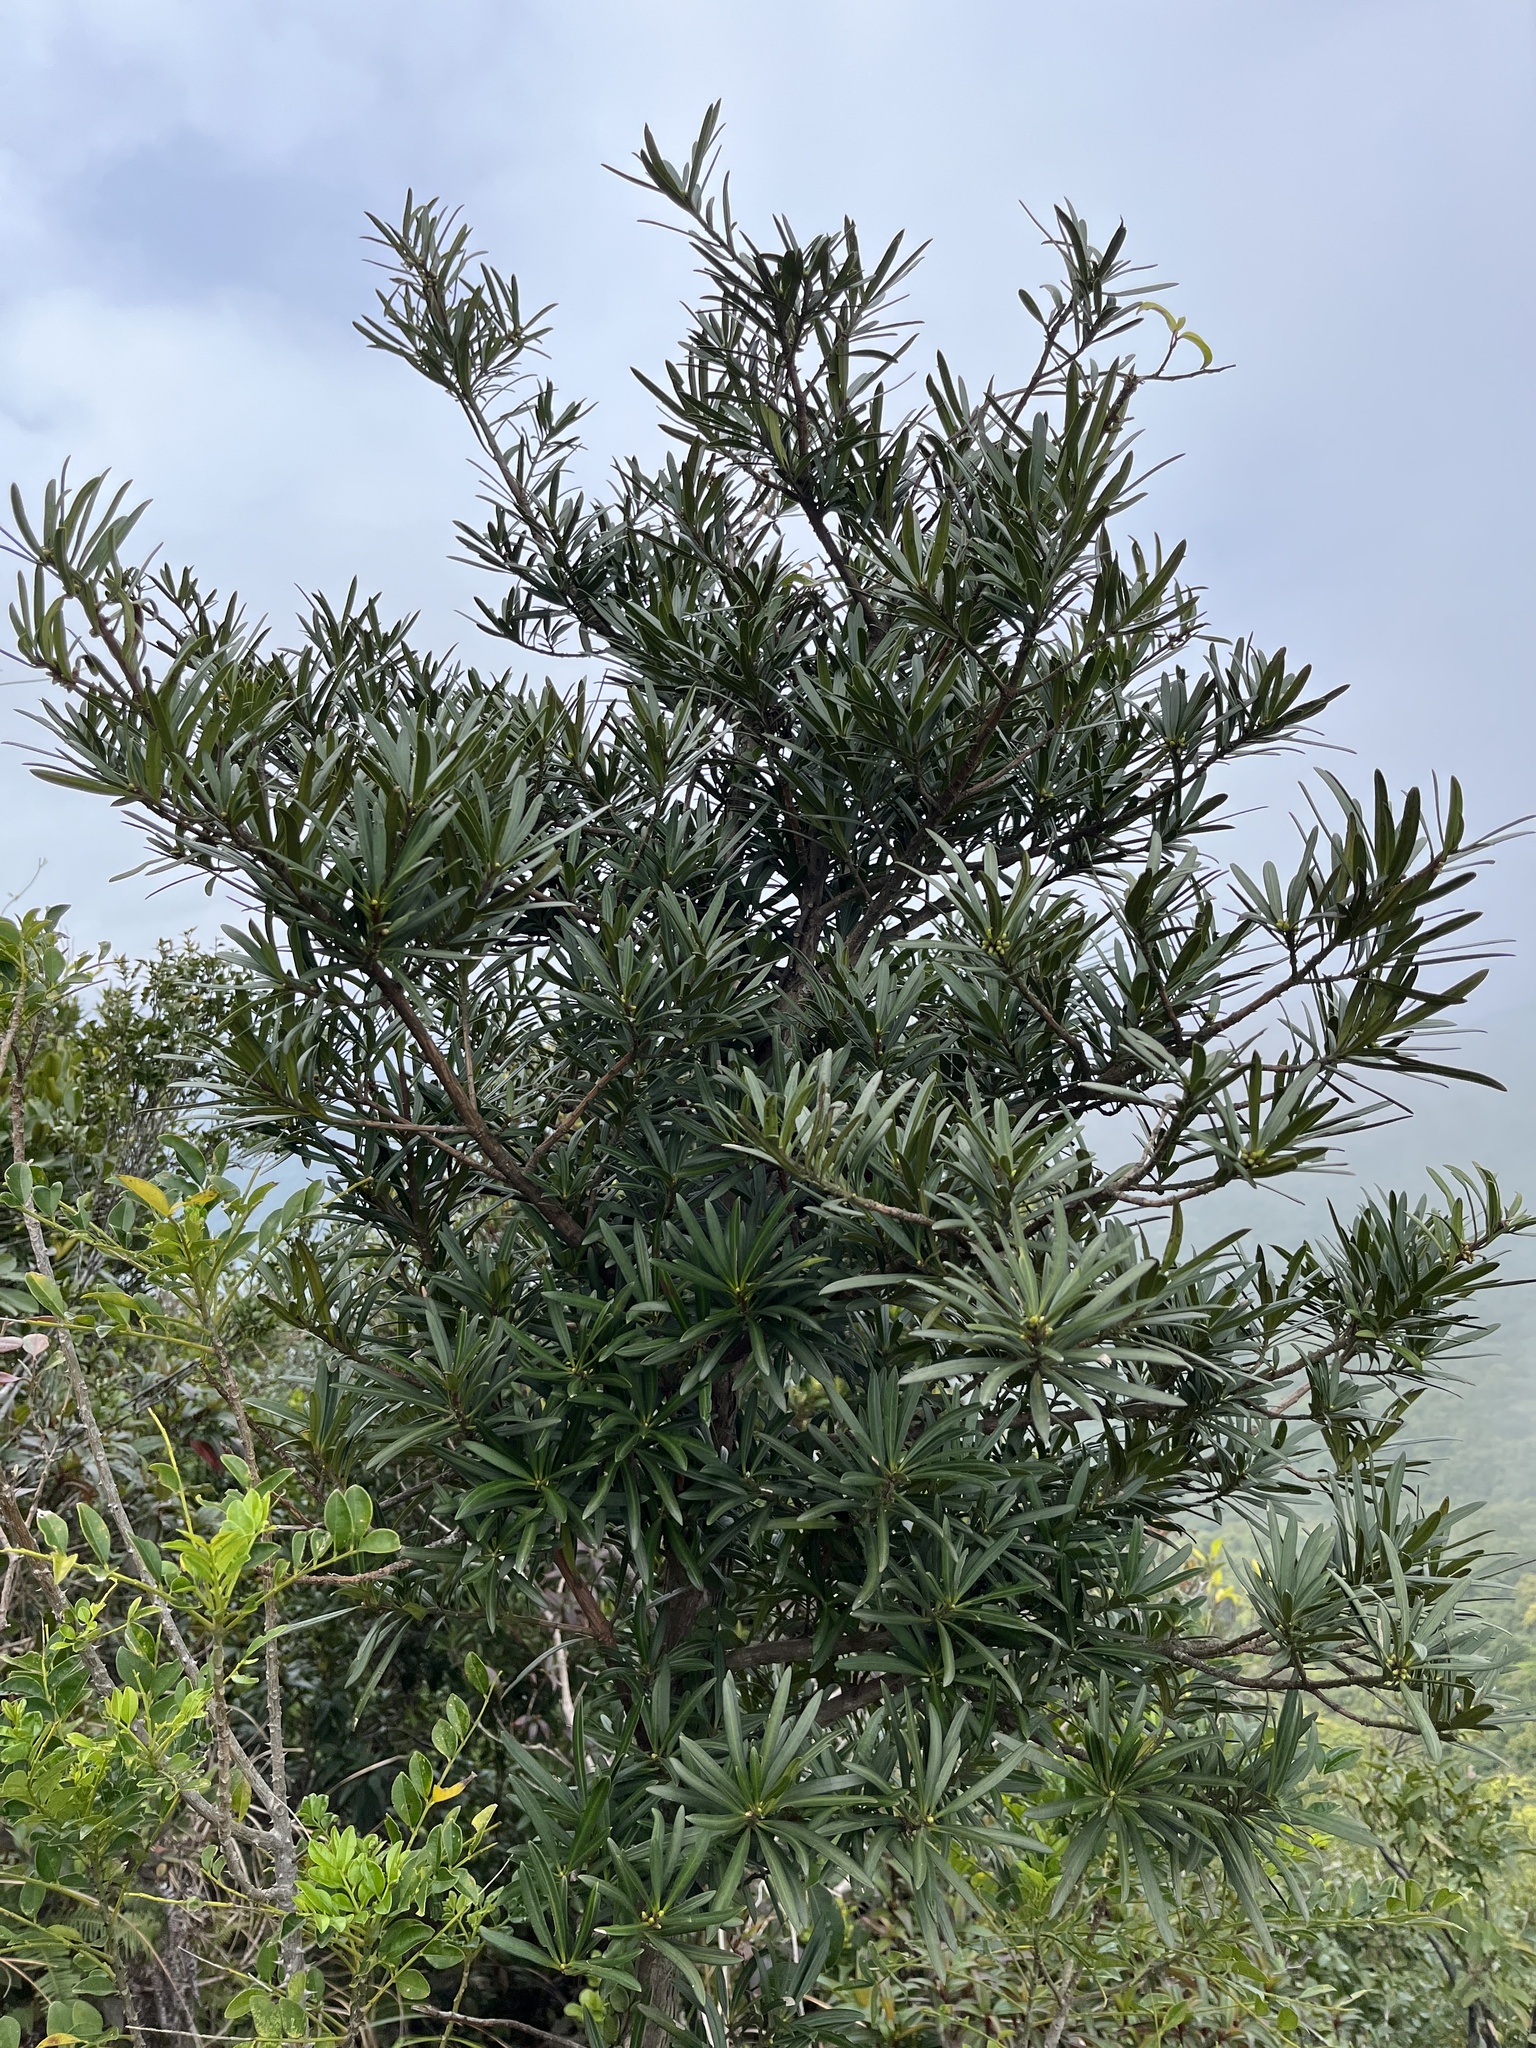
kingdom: Plantae
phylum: Tracheophyta
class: Pinopsida
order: Pinales
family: Podocarpaceae
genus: Podocarpus
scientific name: Podocarpus macrophyllus
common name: Japanese yew
